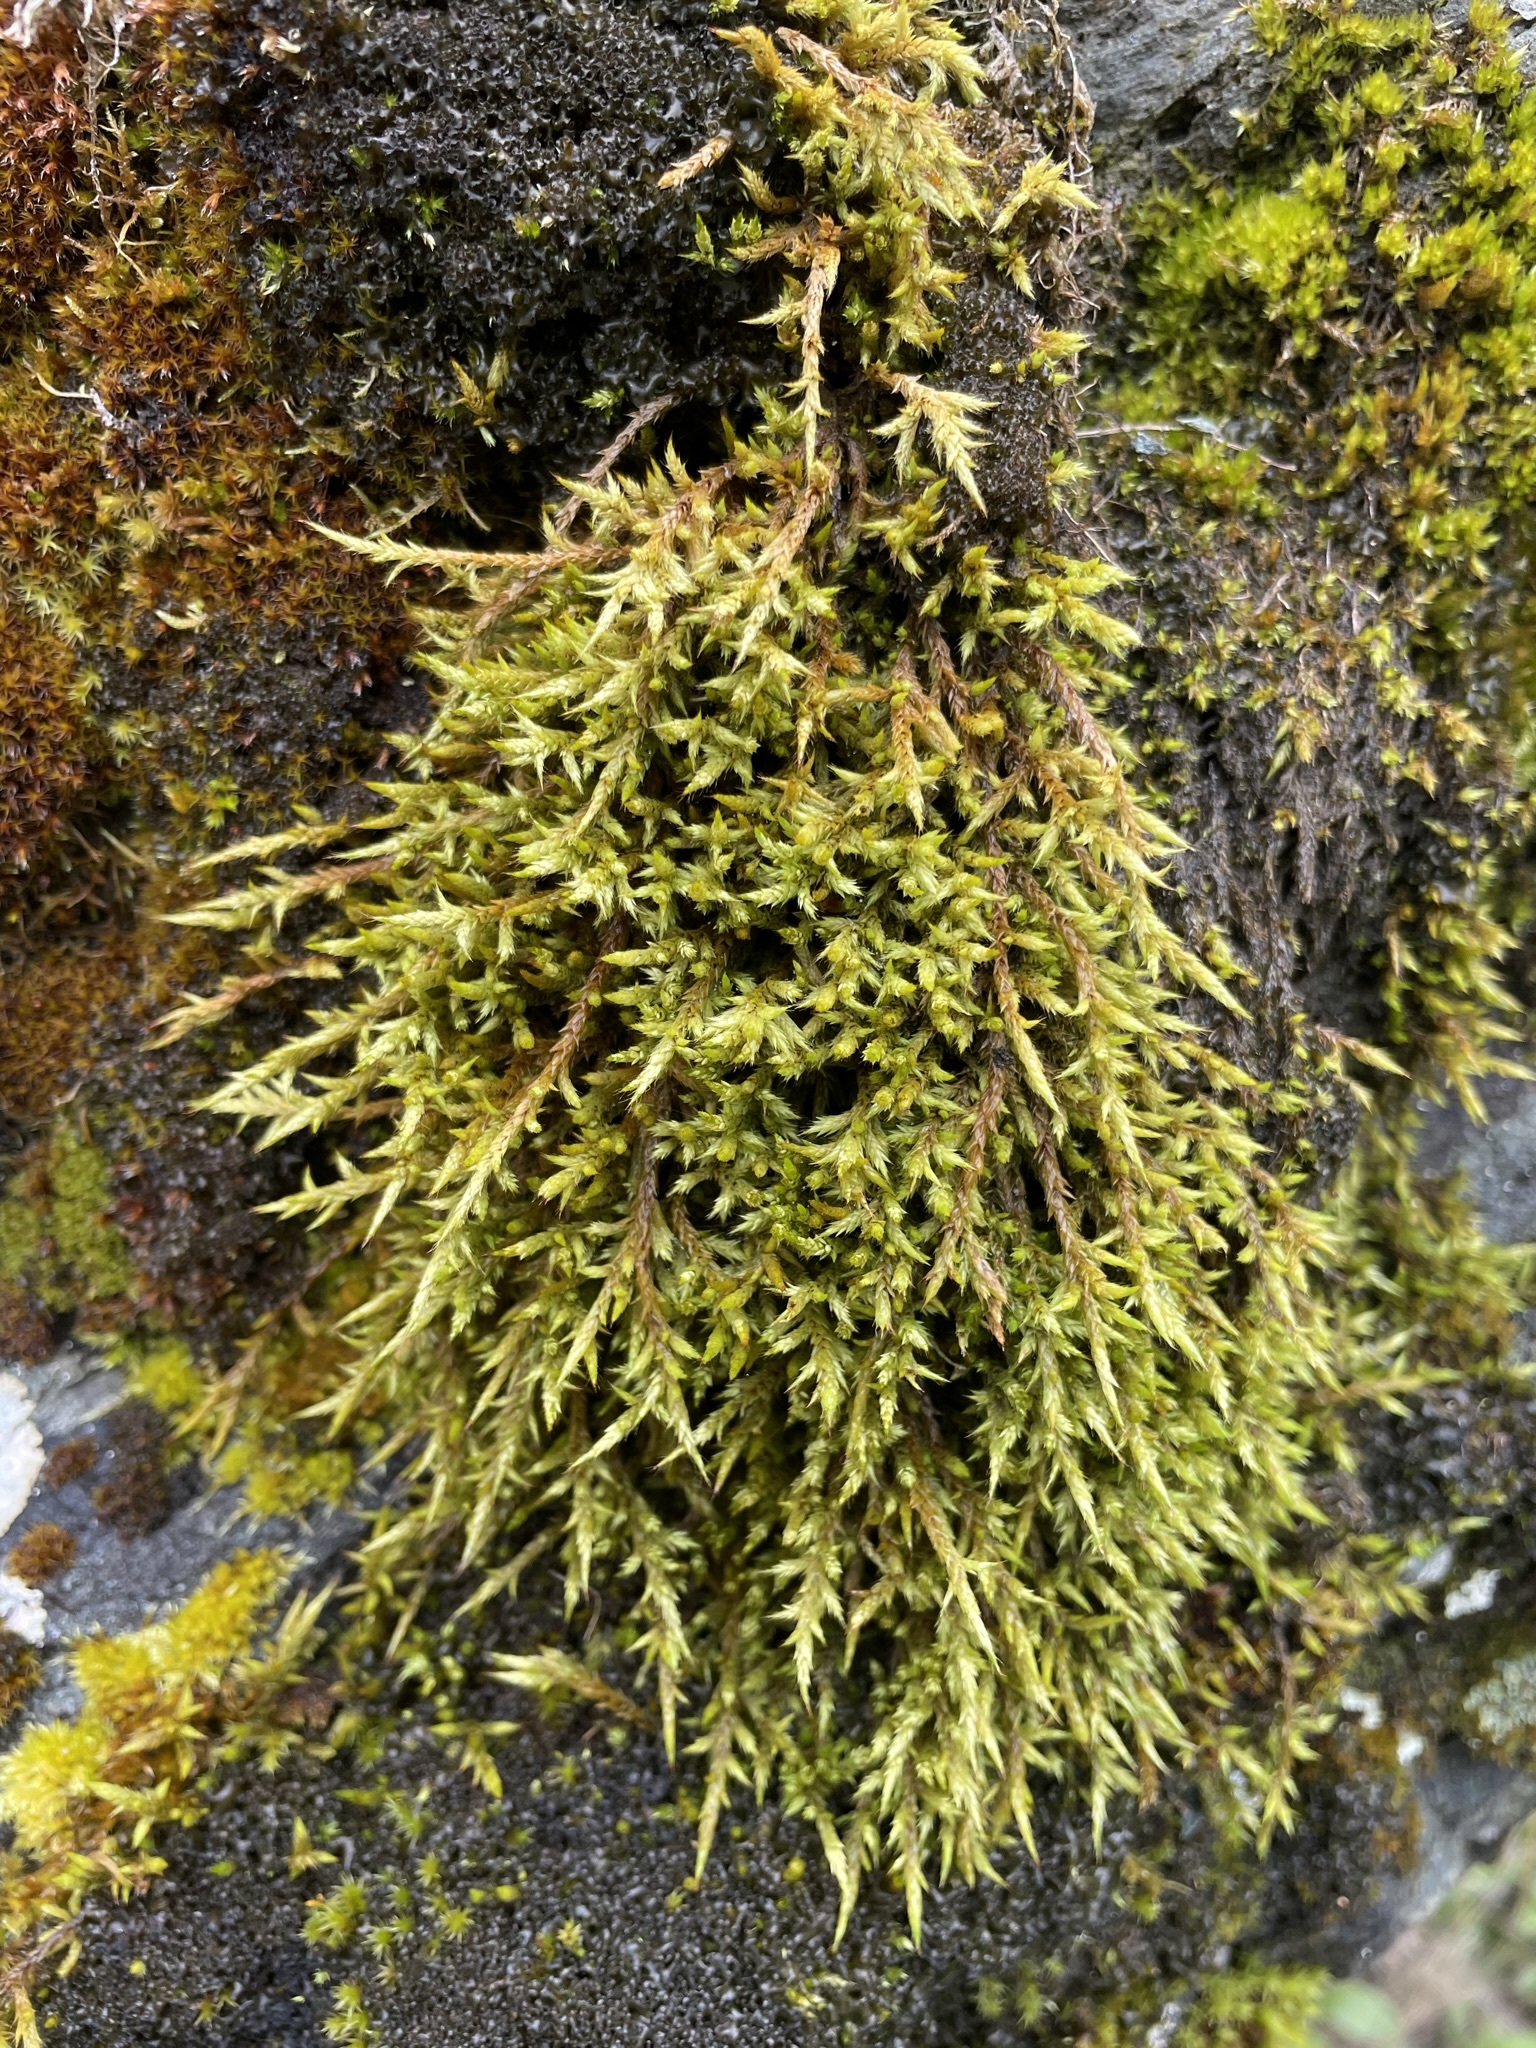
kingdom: Plantae
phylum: Bryophyta
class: Bryopsida
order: Hedwigiales
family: Hedwigiaceae
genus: Rhacocarpus
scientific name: Rhacocarpus purpurascens
